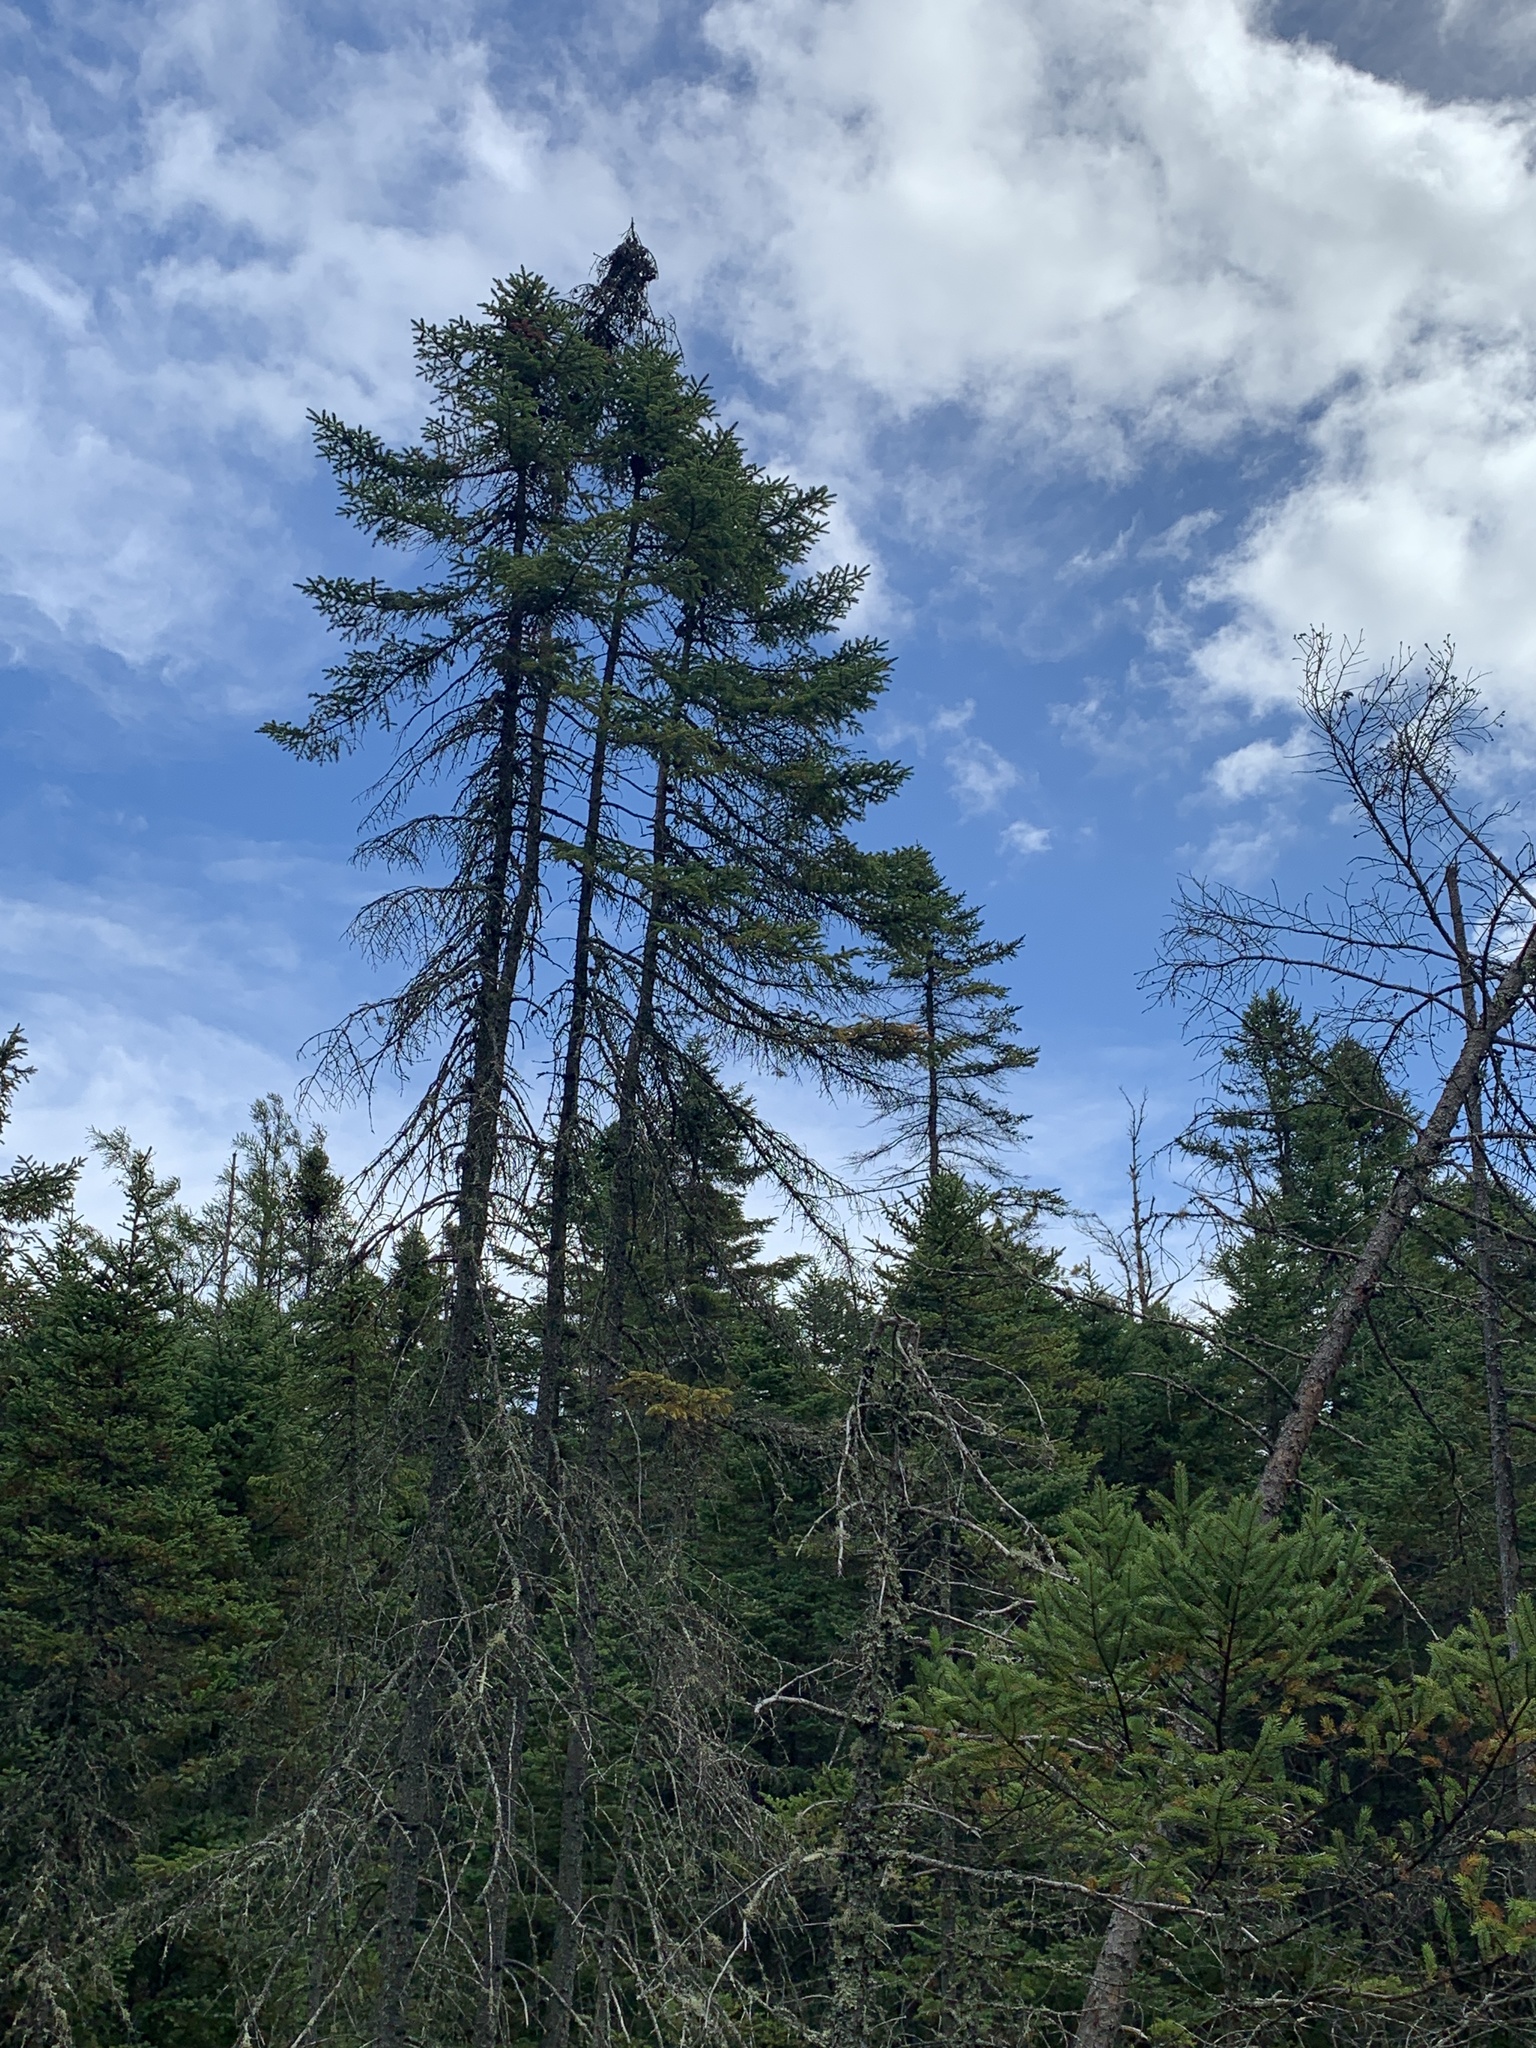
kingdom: Plantae
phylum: Tracheophyta
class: Pinopsida
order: Pinales
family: Pinaceae
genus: Picea
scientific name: Picea mariana
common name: Black spruce
